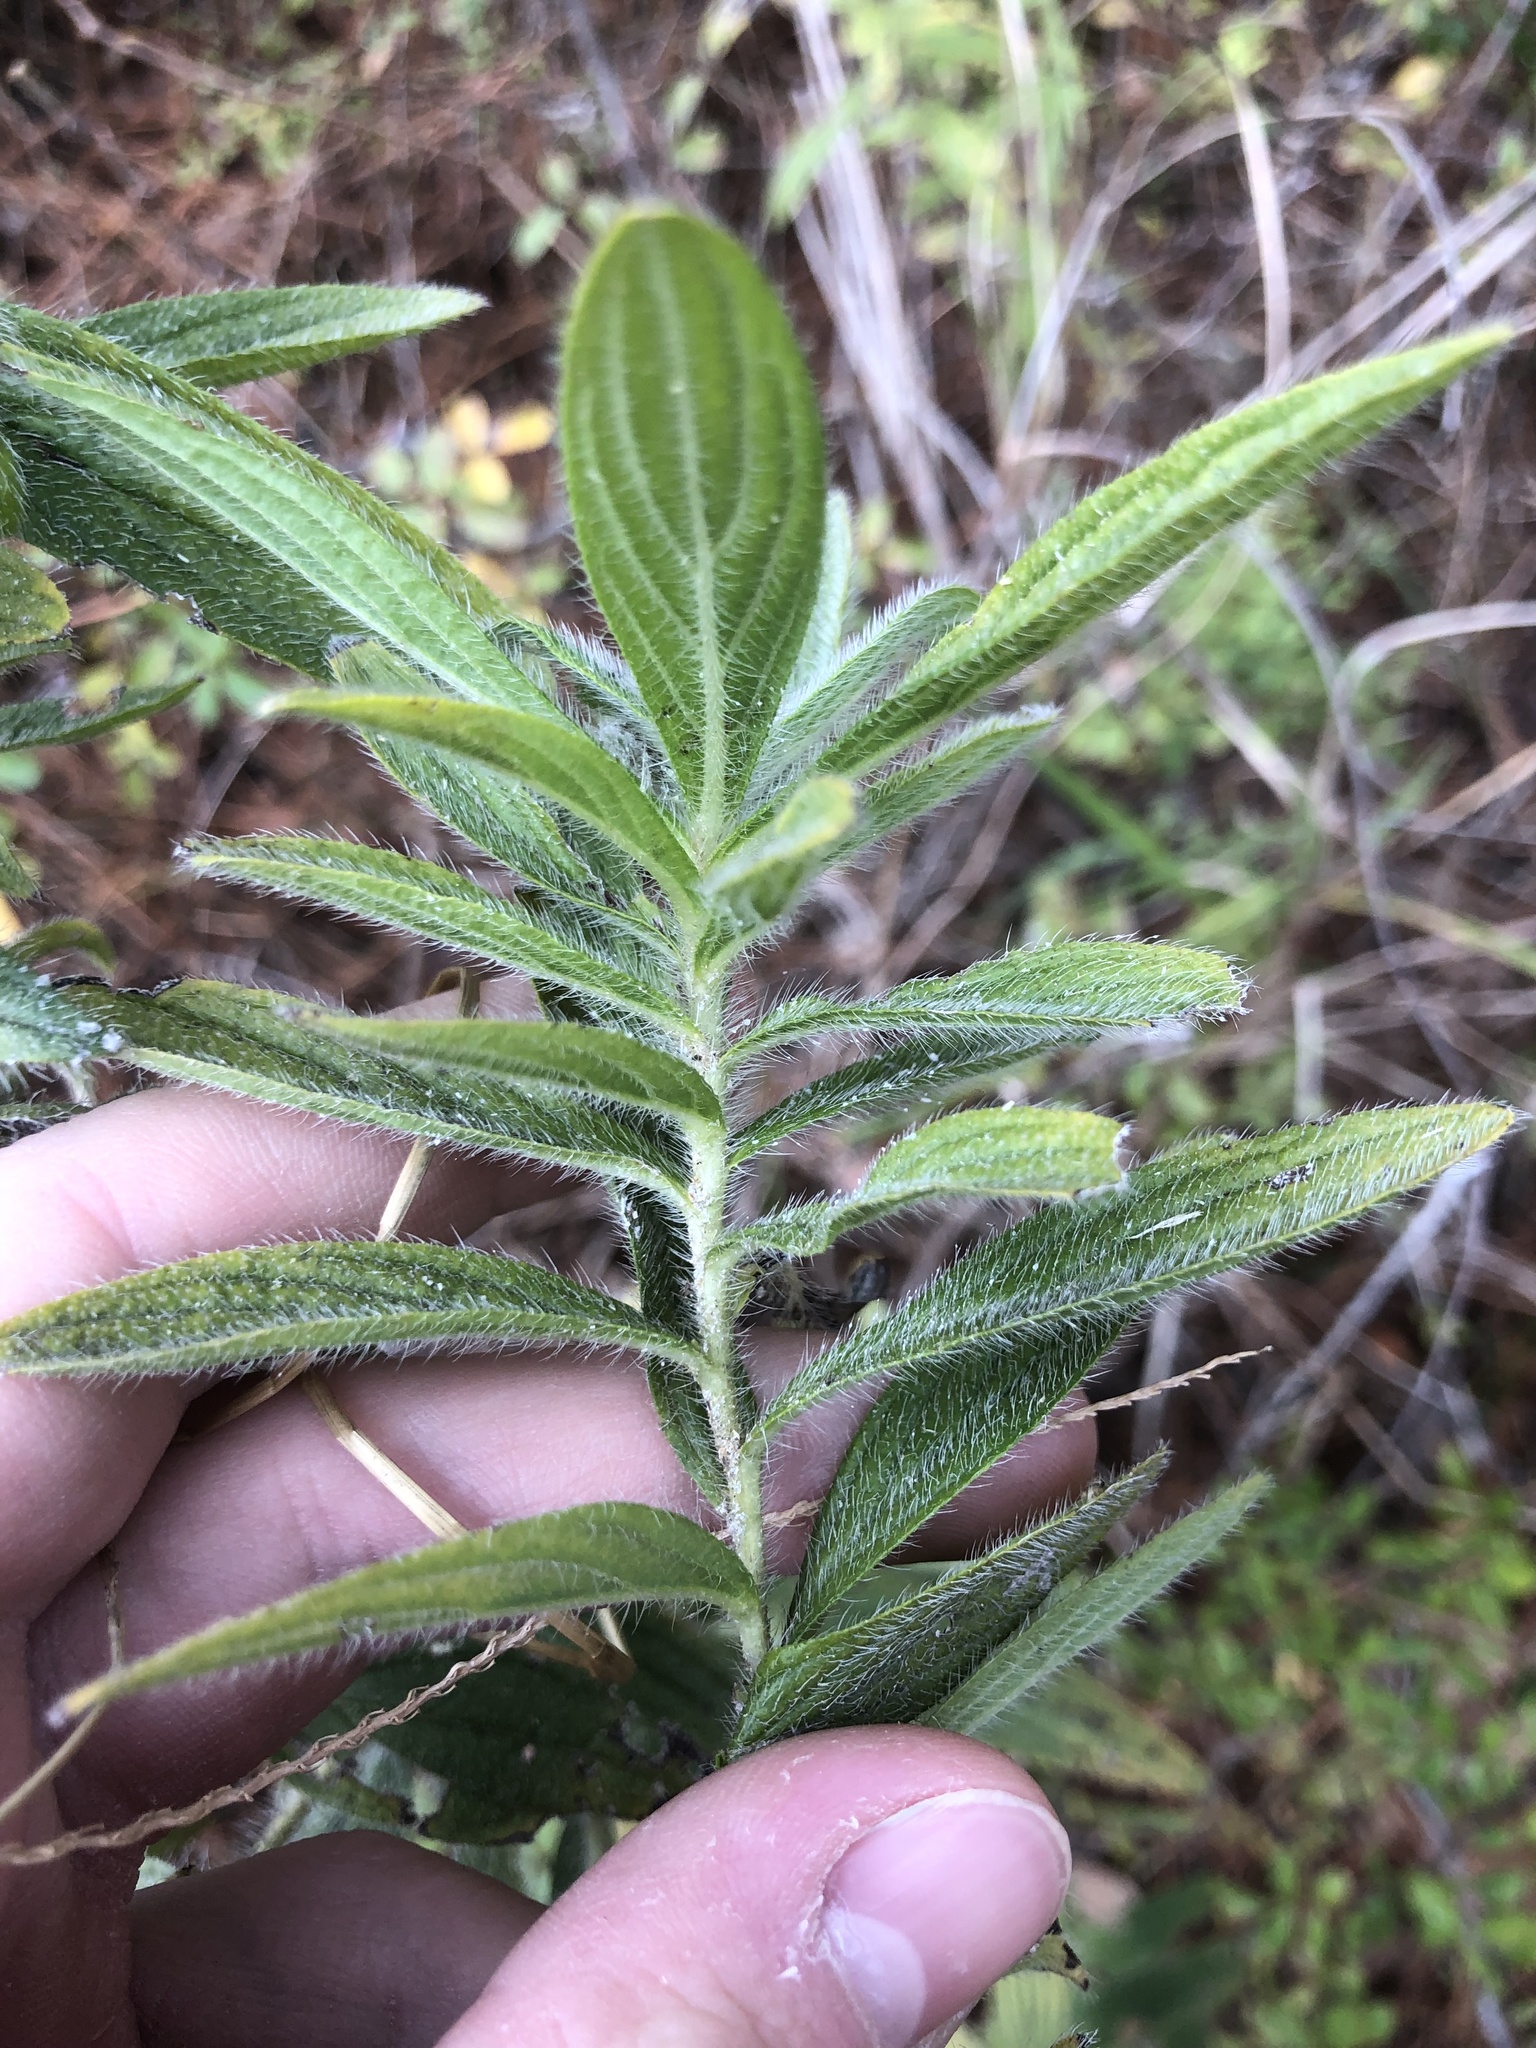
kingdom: Plantae
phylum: Tracheophyta
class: Magnoliopsida
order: Boraginales
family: Boraginaceae
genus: Lithospermum
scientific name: Lithospermum caroliniense
